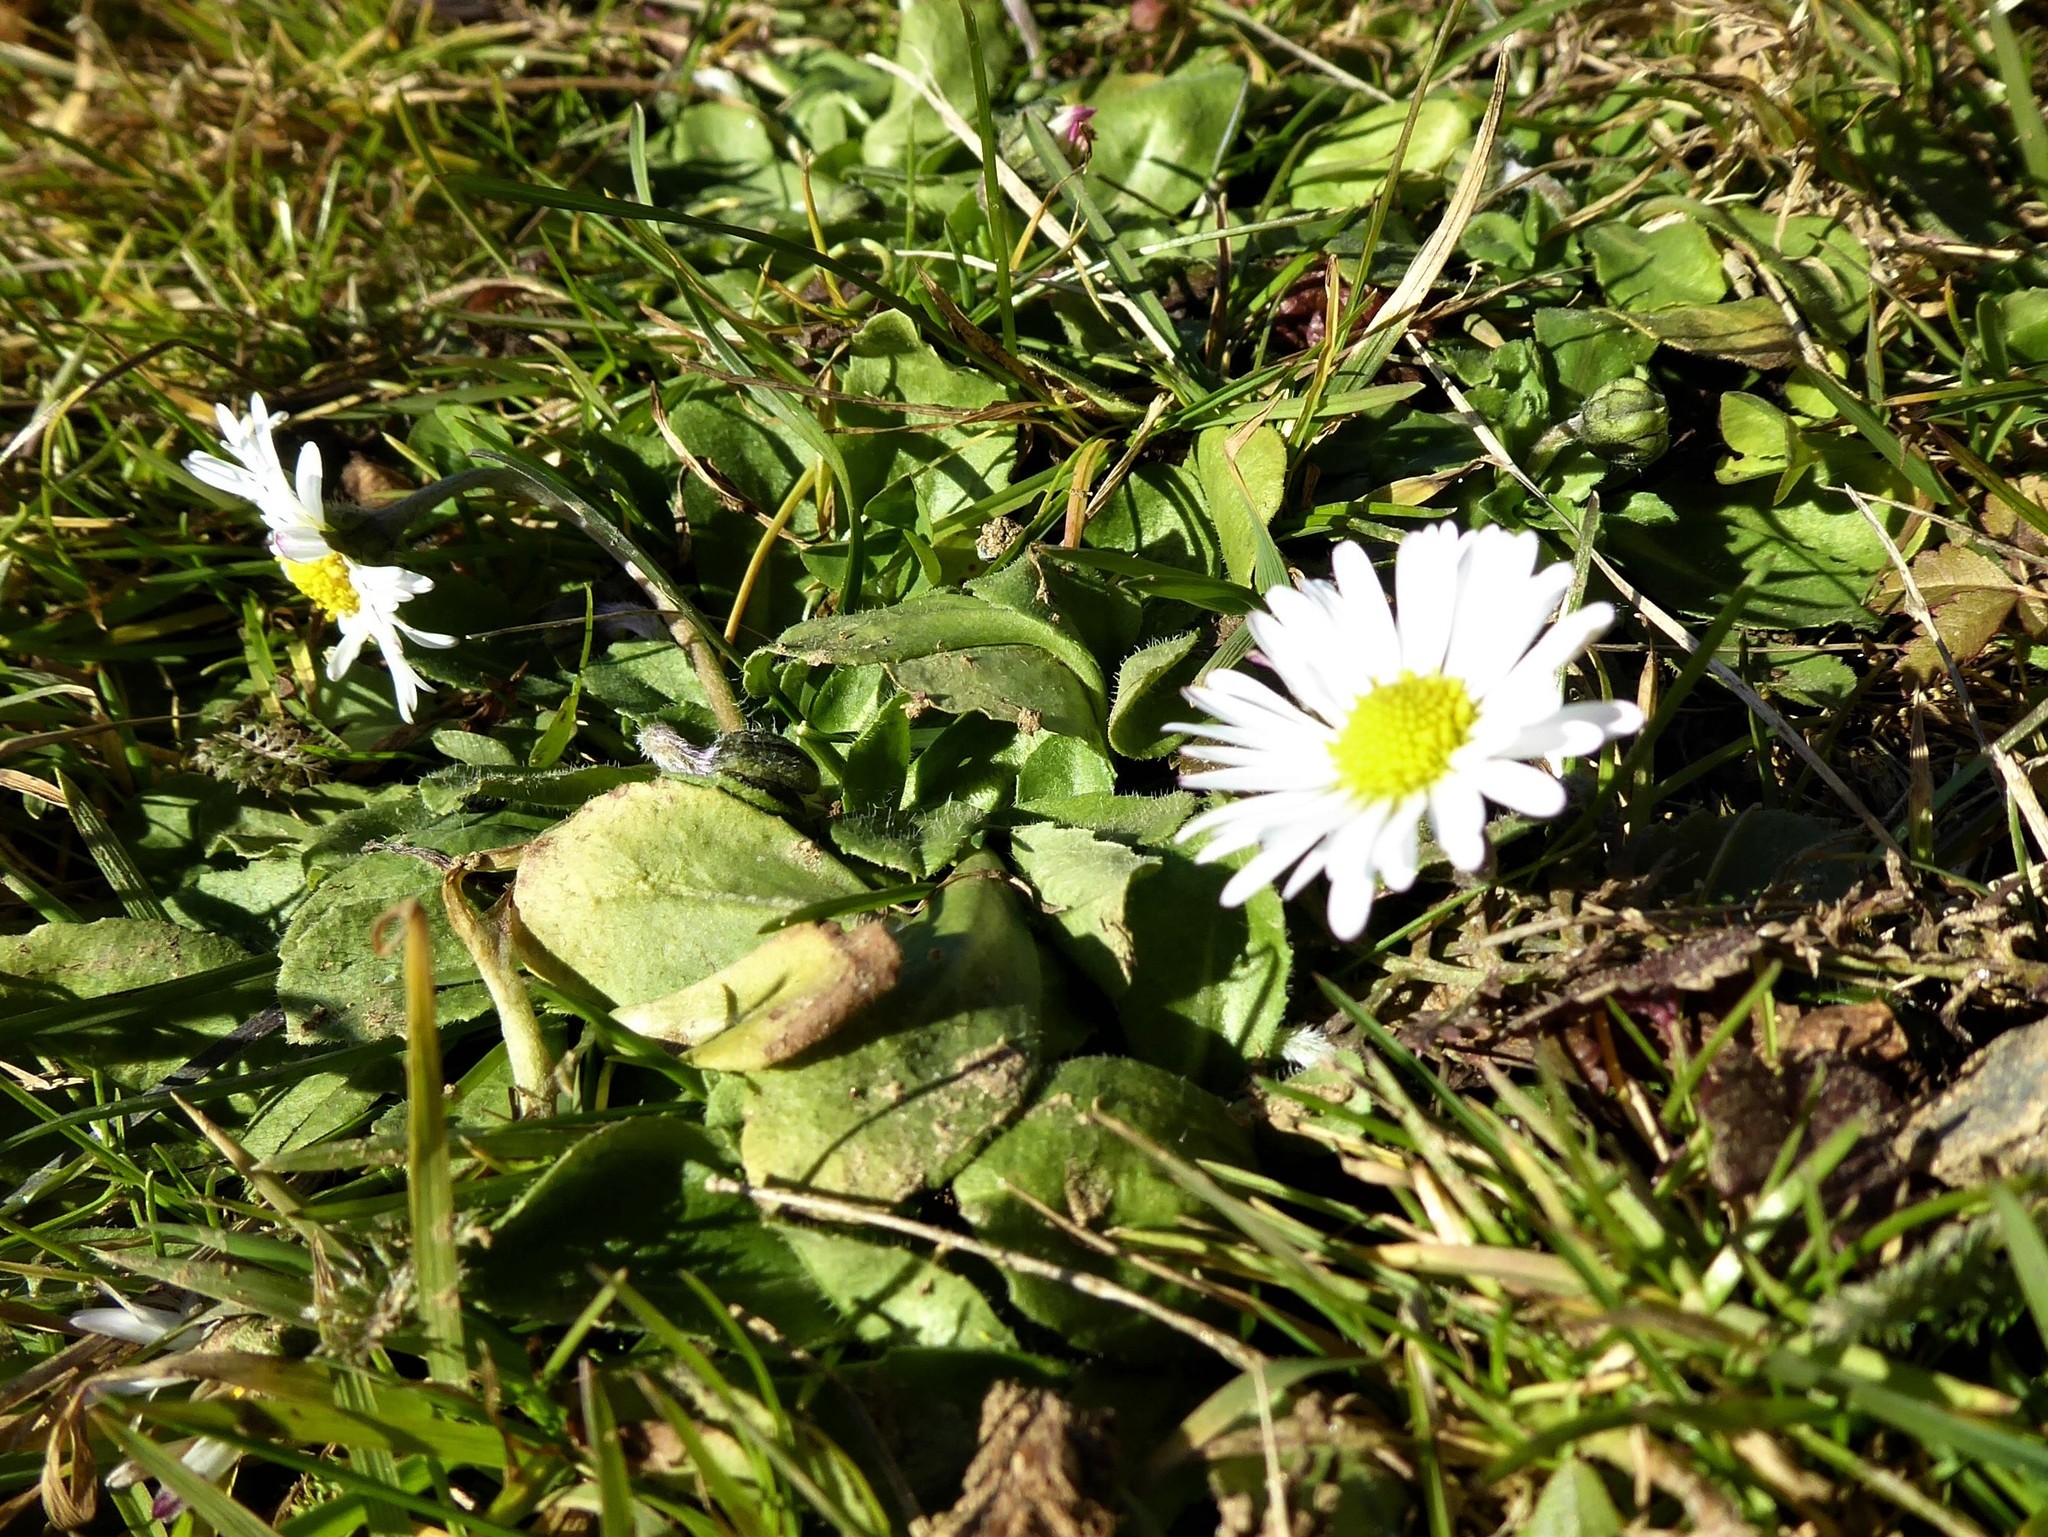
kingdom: Plantae
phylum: Tracheophyta
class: Magnoliopsida
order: Asterales
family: Asteraceae
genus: Bellis
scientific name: Bellis perennis
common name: Lawndaisy
